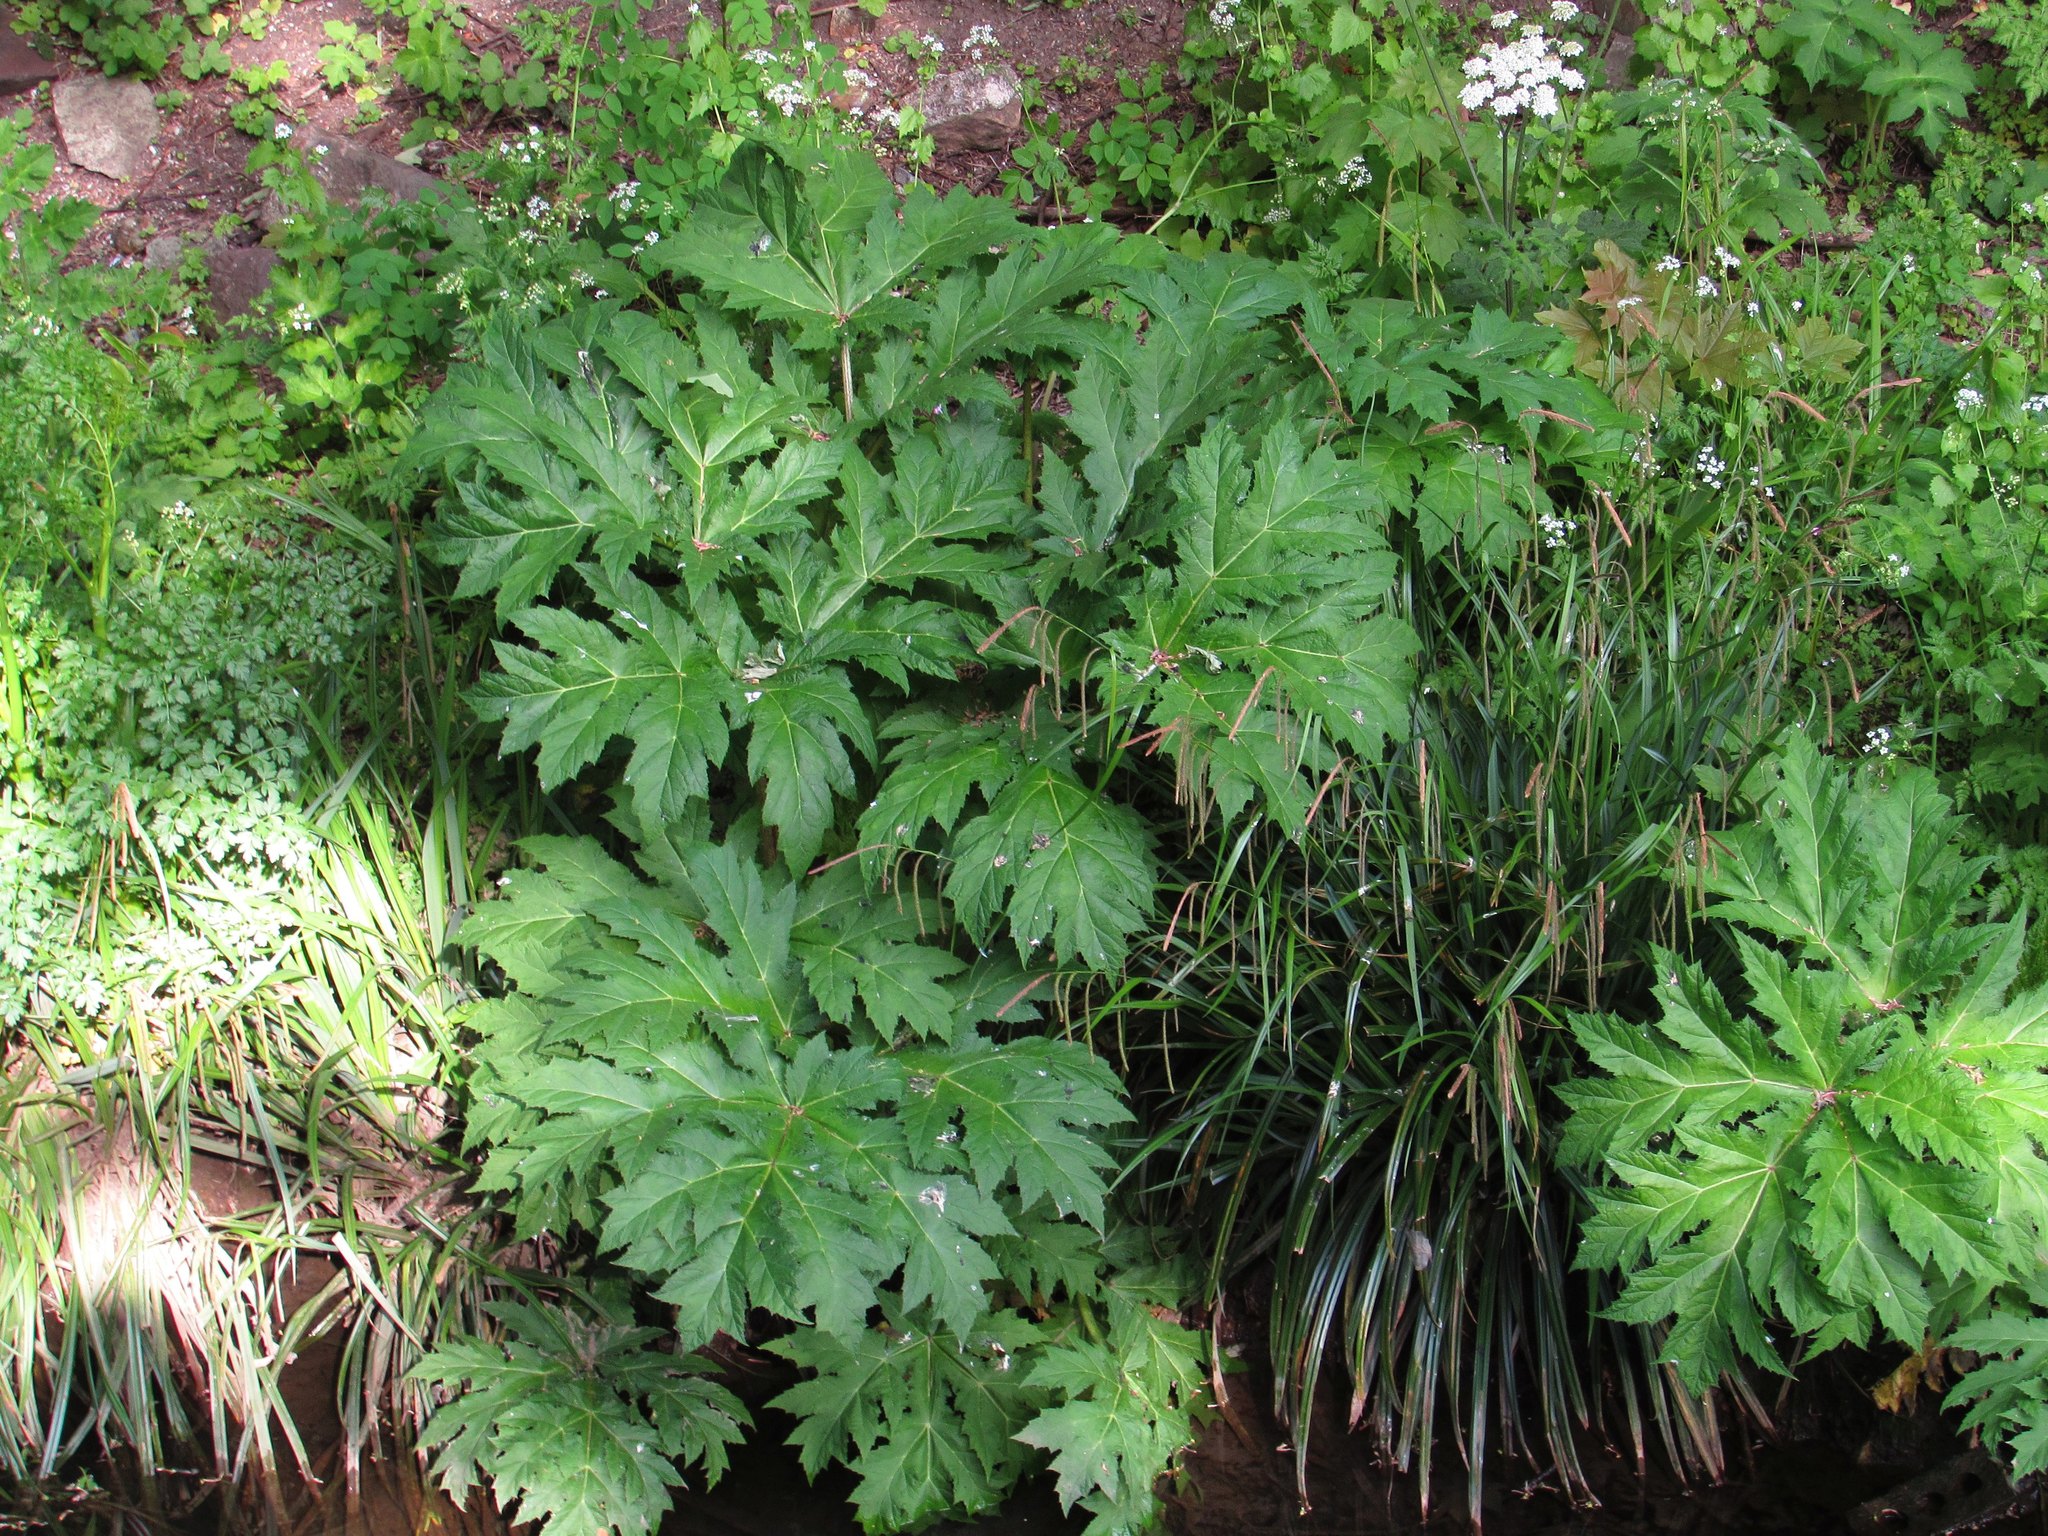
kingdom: Plantae
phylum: Tracheophyta
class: Magnoliopsida
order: Apiales
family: Apiaceae
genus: Heracleum
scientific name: Heracleum mantegazzianum
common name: Giant hogweed
